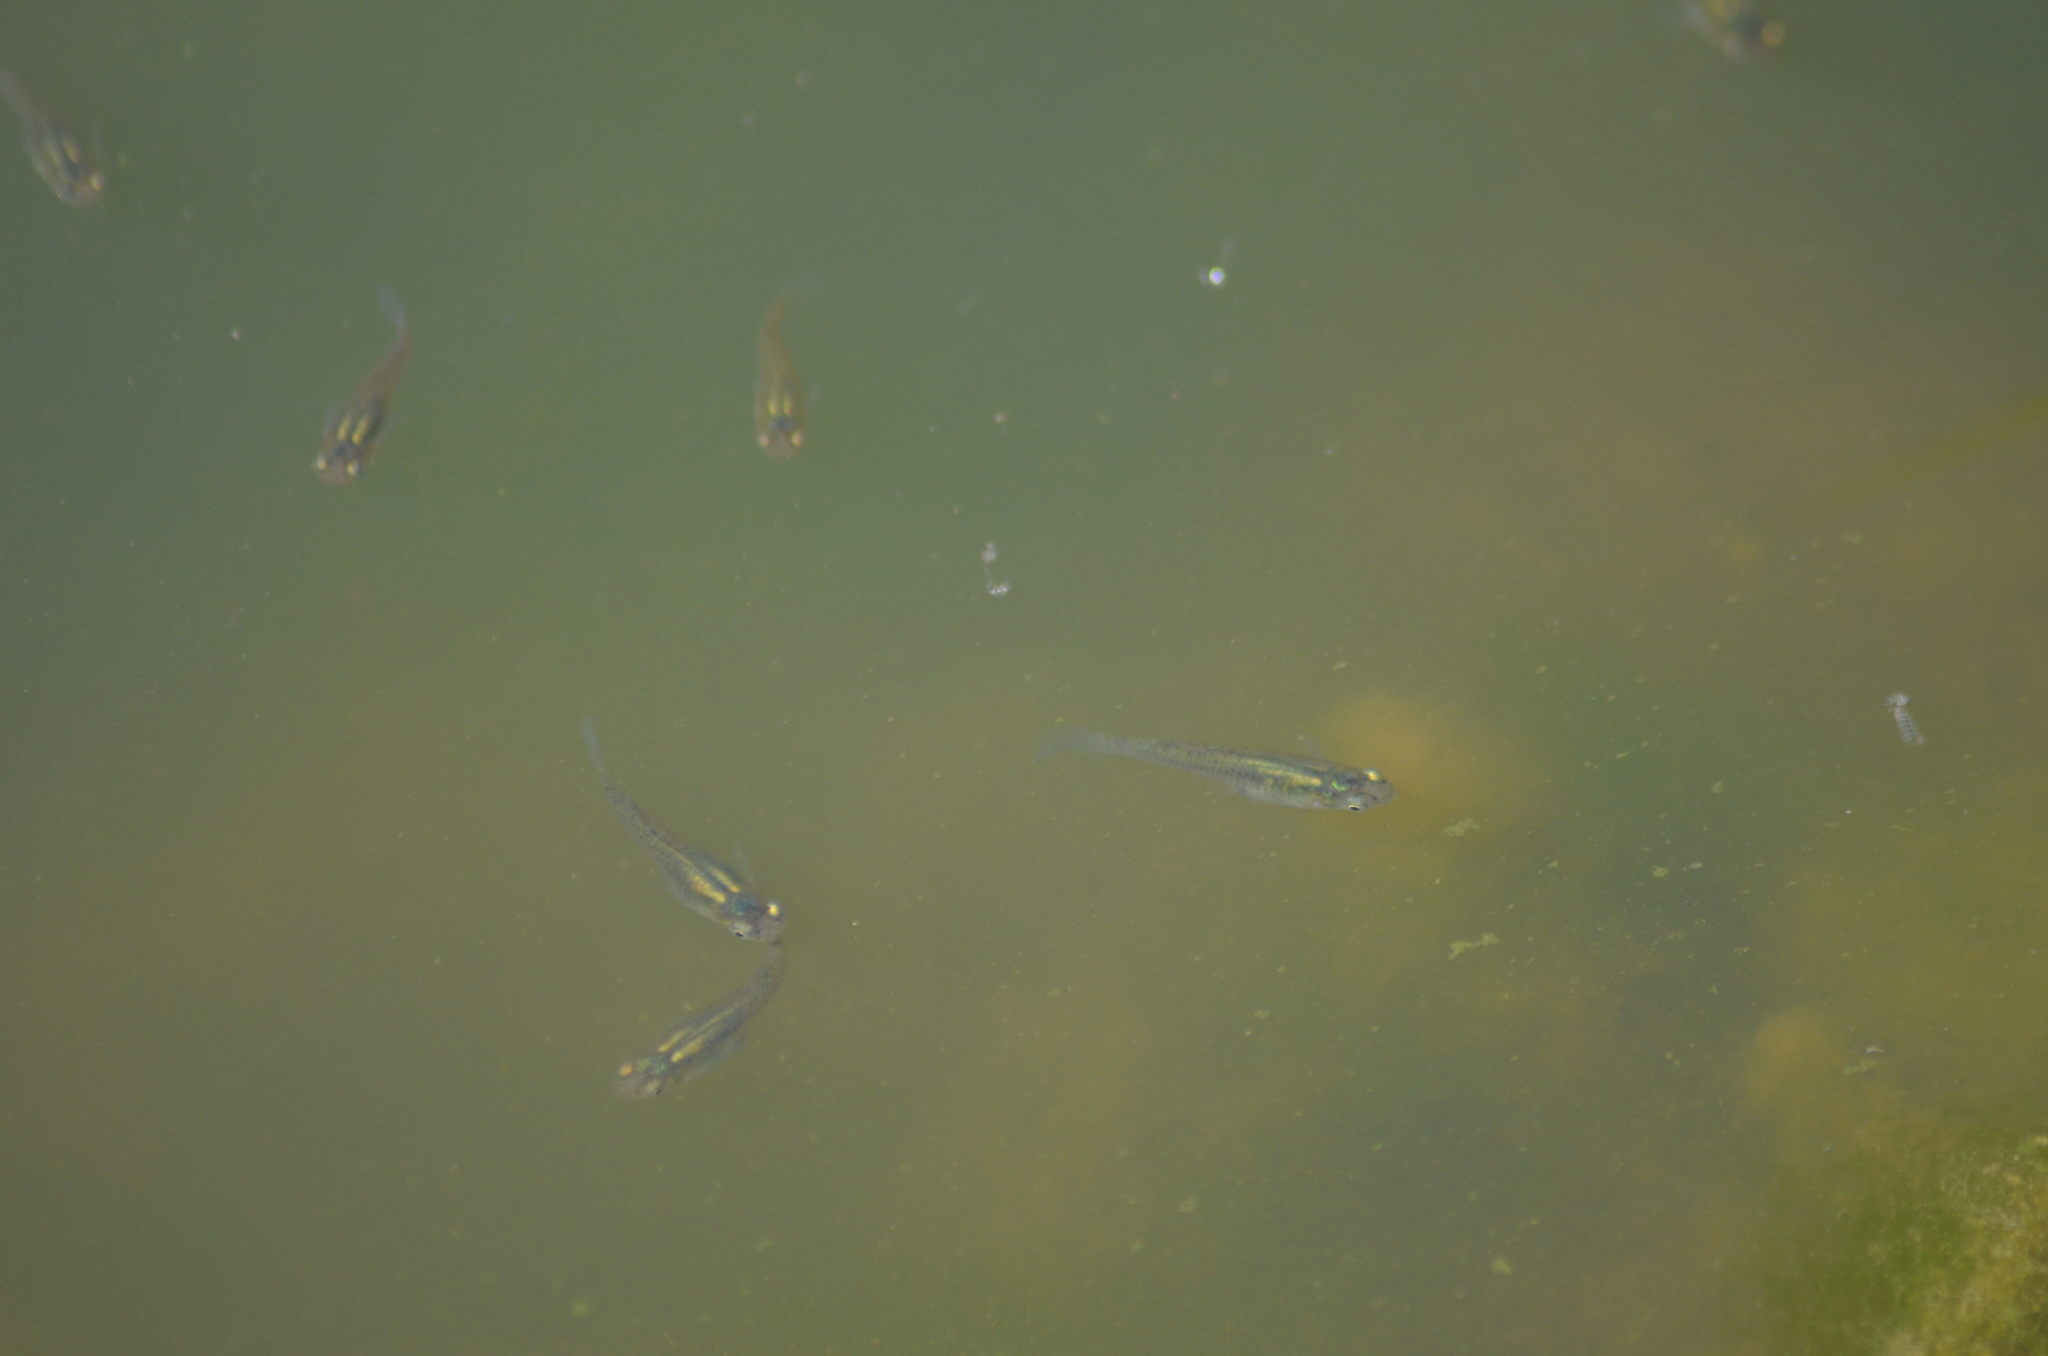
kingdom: Animalia
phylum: Chordata
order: Cyprinodontiformes
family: Poeciliidae
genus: Gambusia
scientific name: Gambusia holbrooki
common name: Eastern mosquitofish
